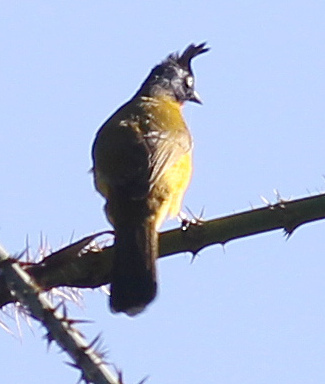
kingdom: Animalia
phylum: Chordata
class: Aves
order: Passeriformes
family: Pycnonotidae
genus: Pycnonotus
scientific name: Pycnonotus flaviventris
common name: Black-crested bulbul
